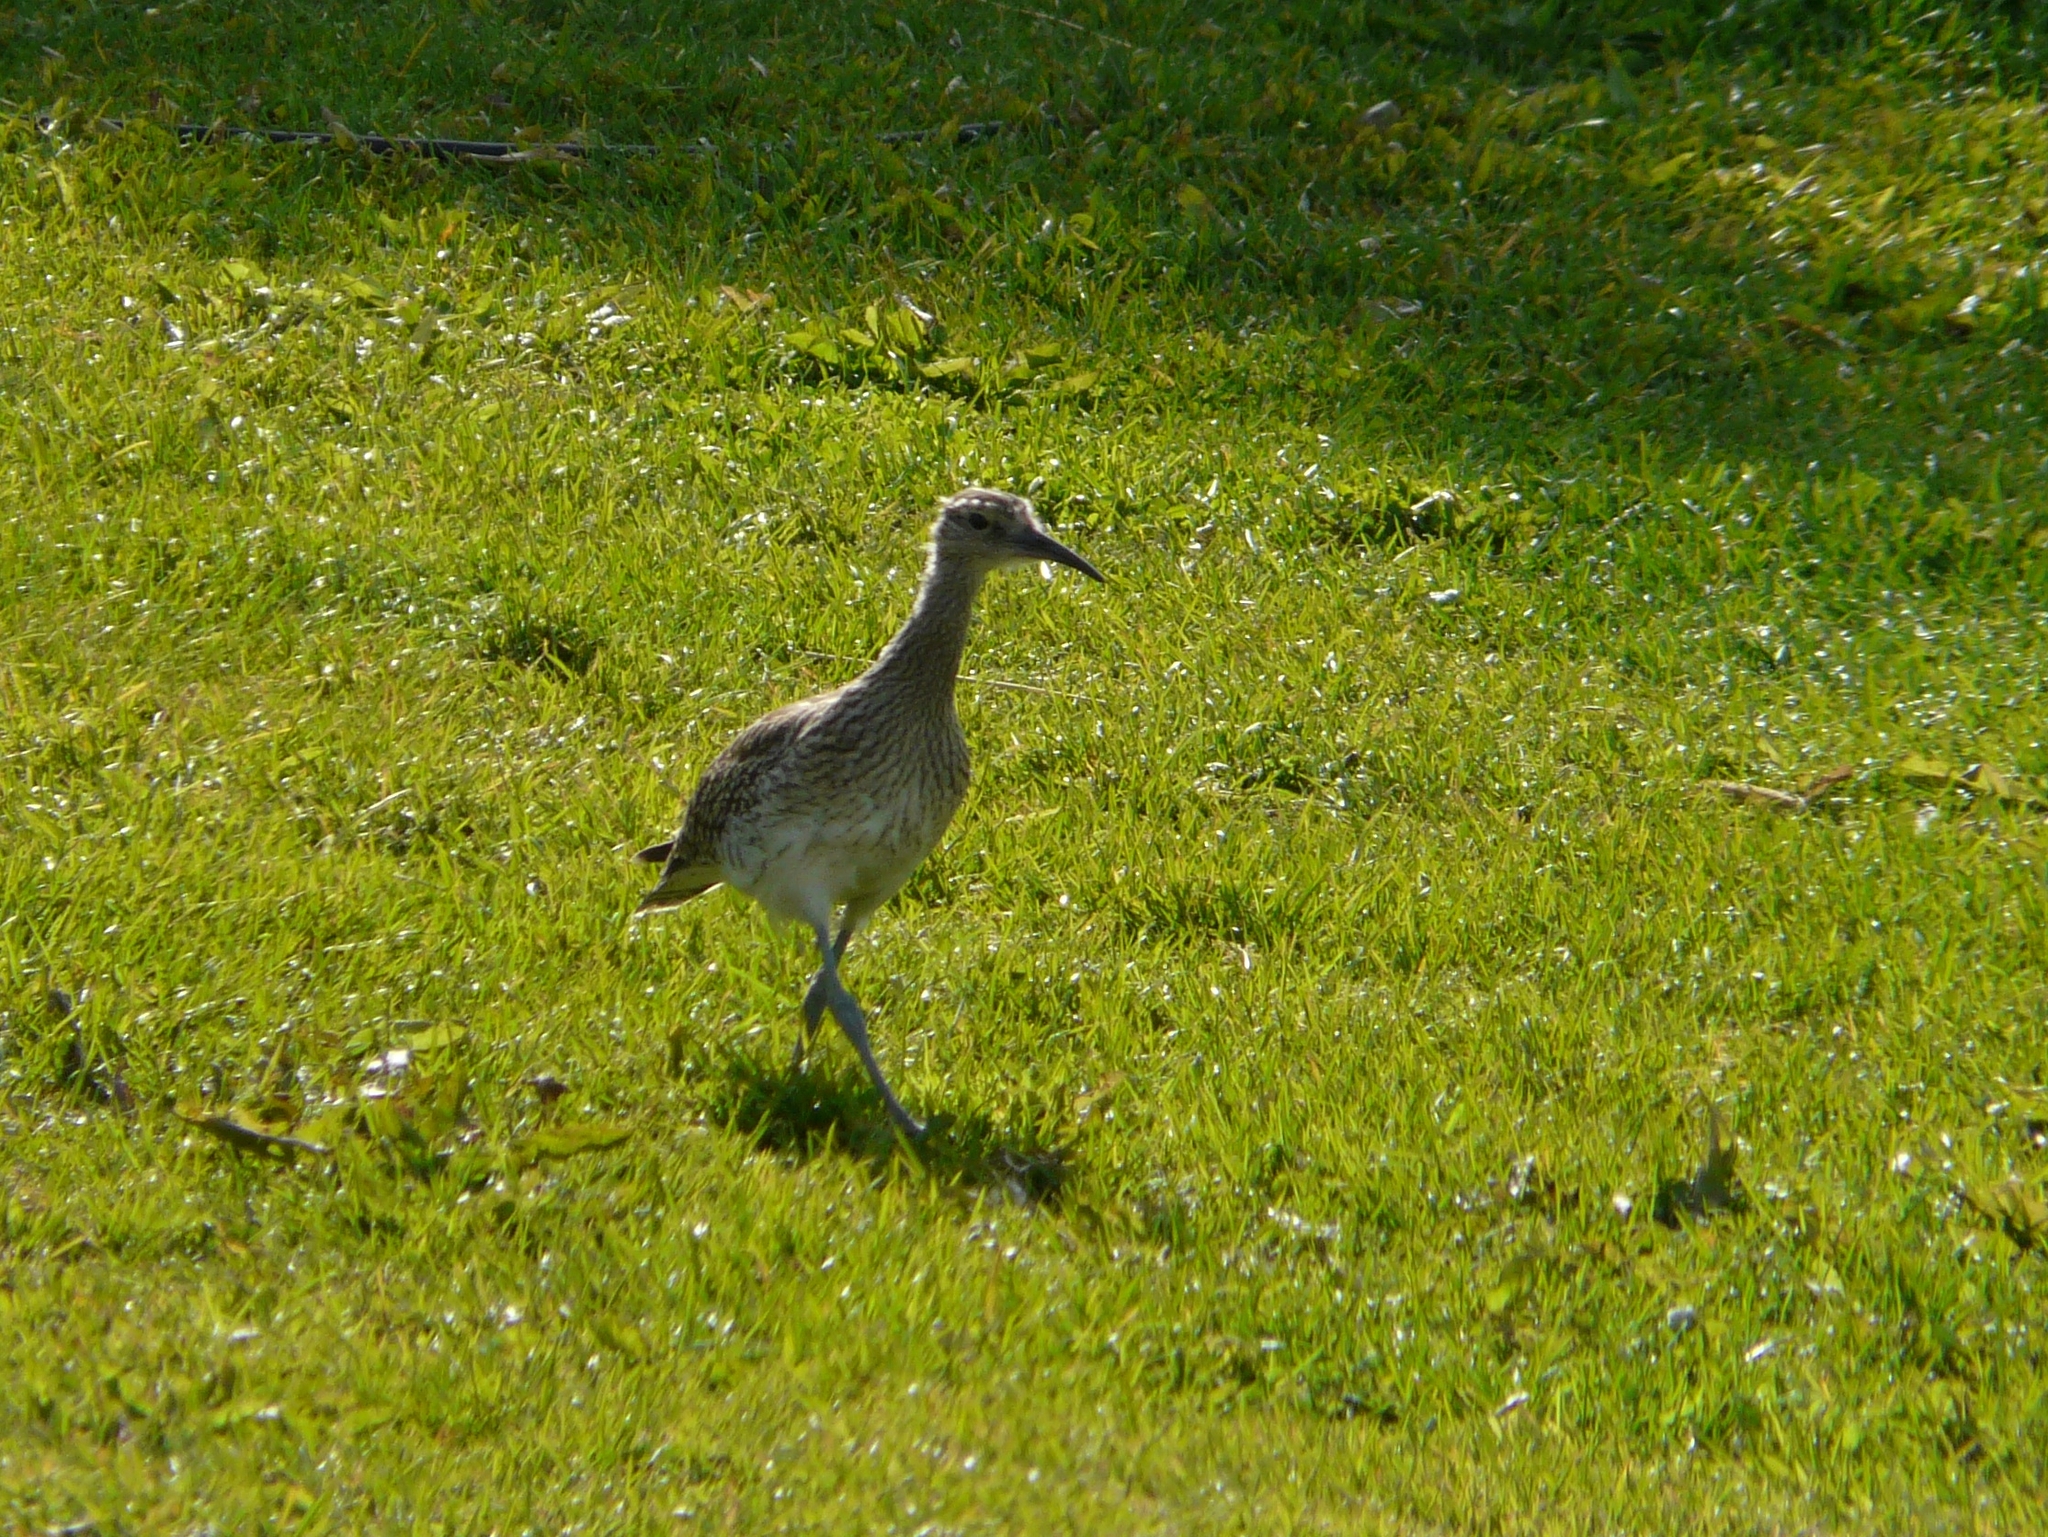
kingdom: Animalia
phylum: Chordata
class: Aves
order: Charadriiformes
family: Scolopacidae
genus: Numenius
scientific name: Numenius phaeopus
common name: Whimbrel
